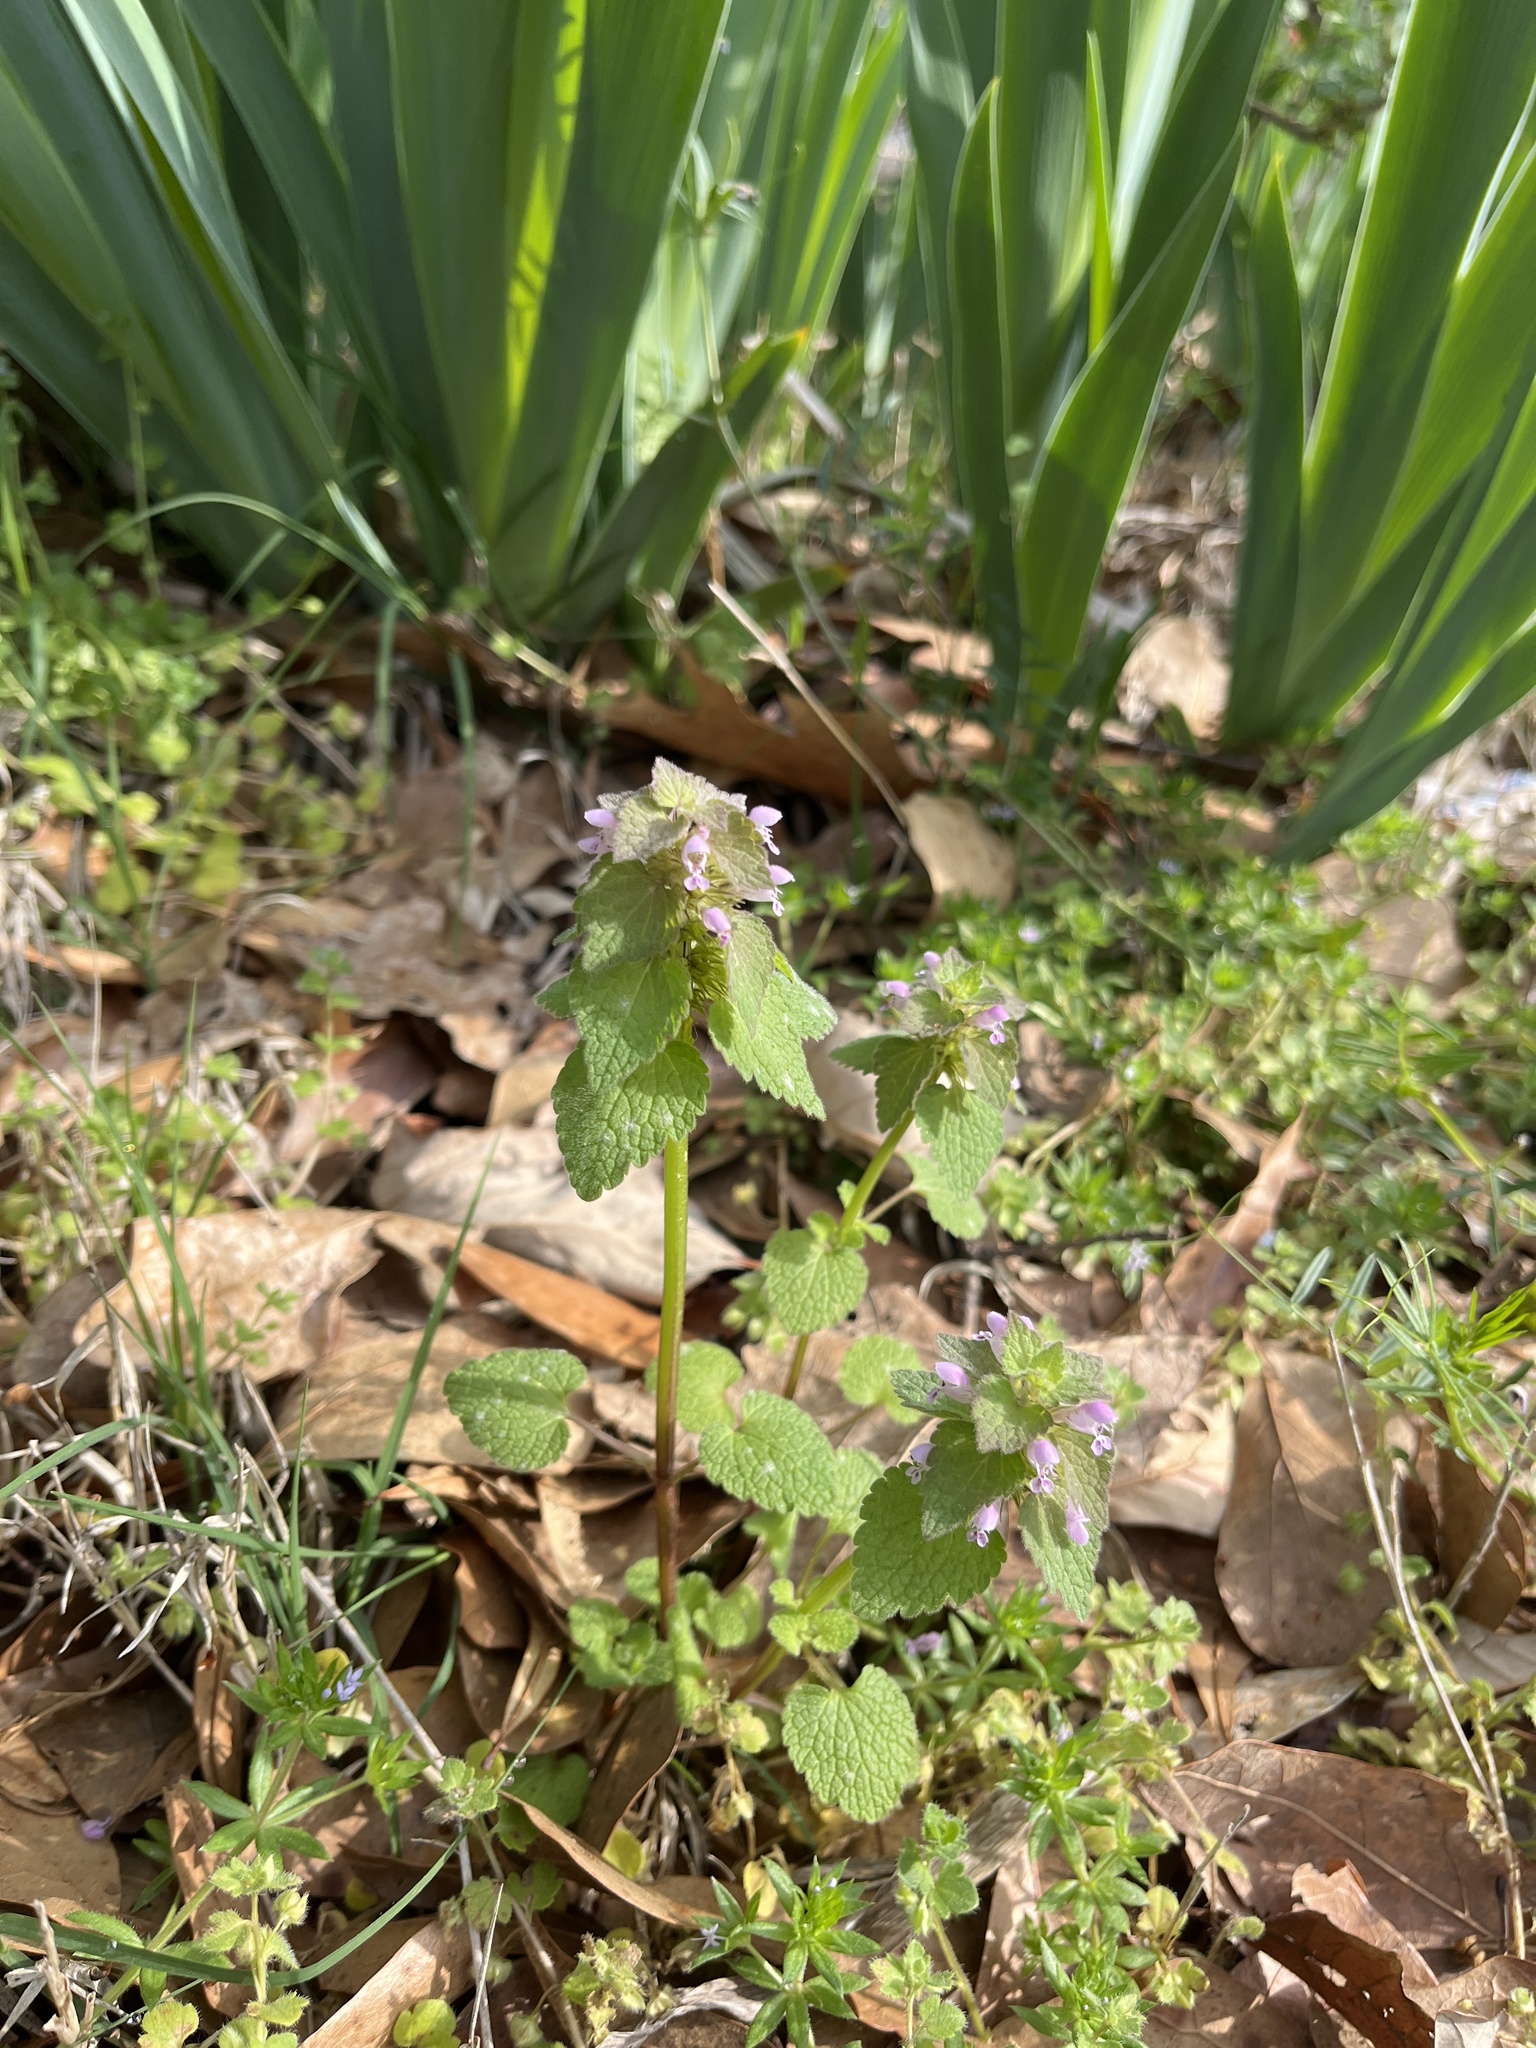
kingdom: Plantae
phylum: Tracheophyta
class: Magnoliopsida
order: Lamiales
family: Lamiaceae
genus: Lamium
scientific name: Lamium purpureum
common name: Red dead-nettle
